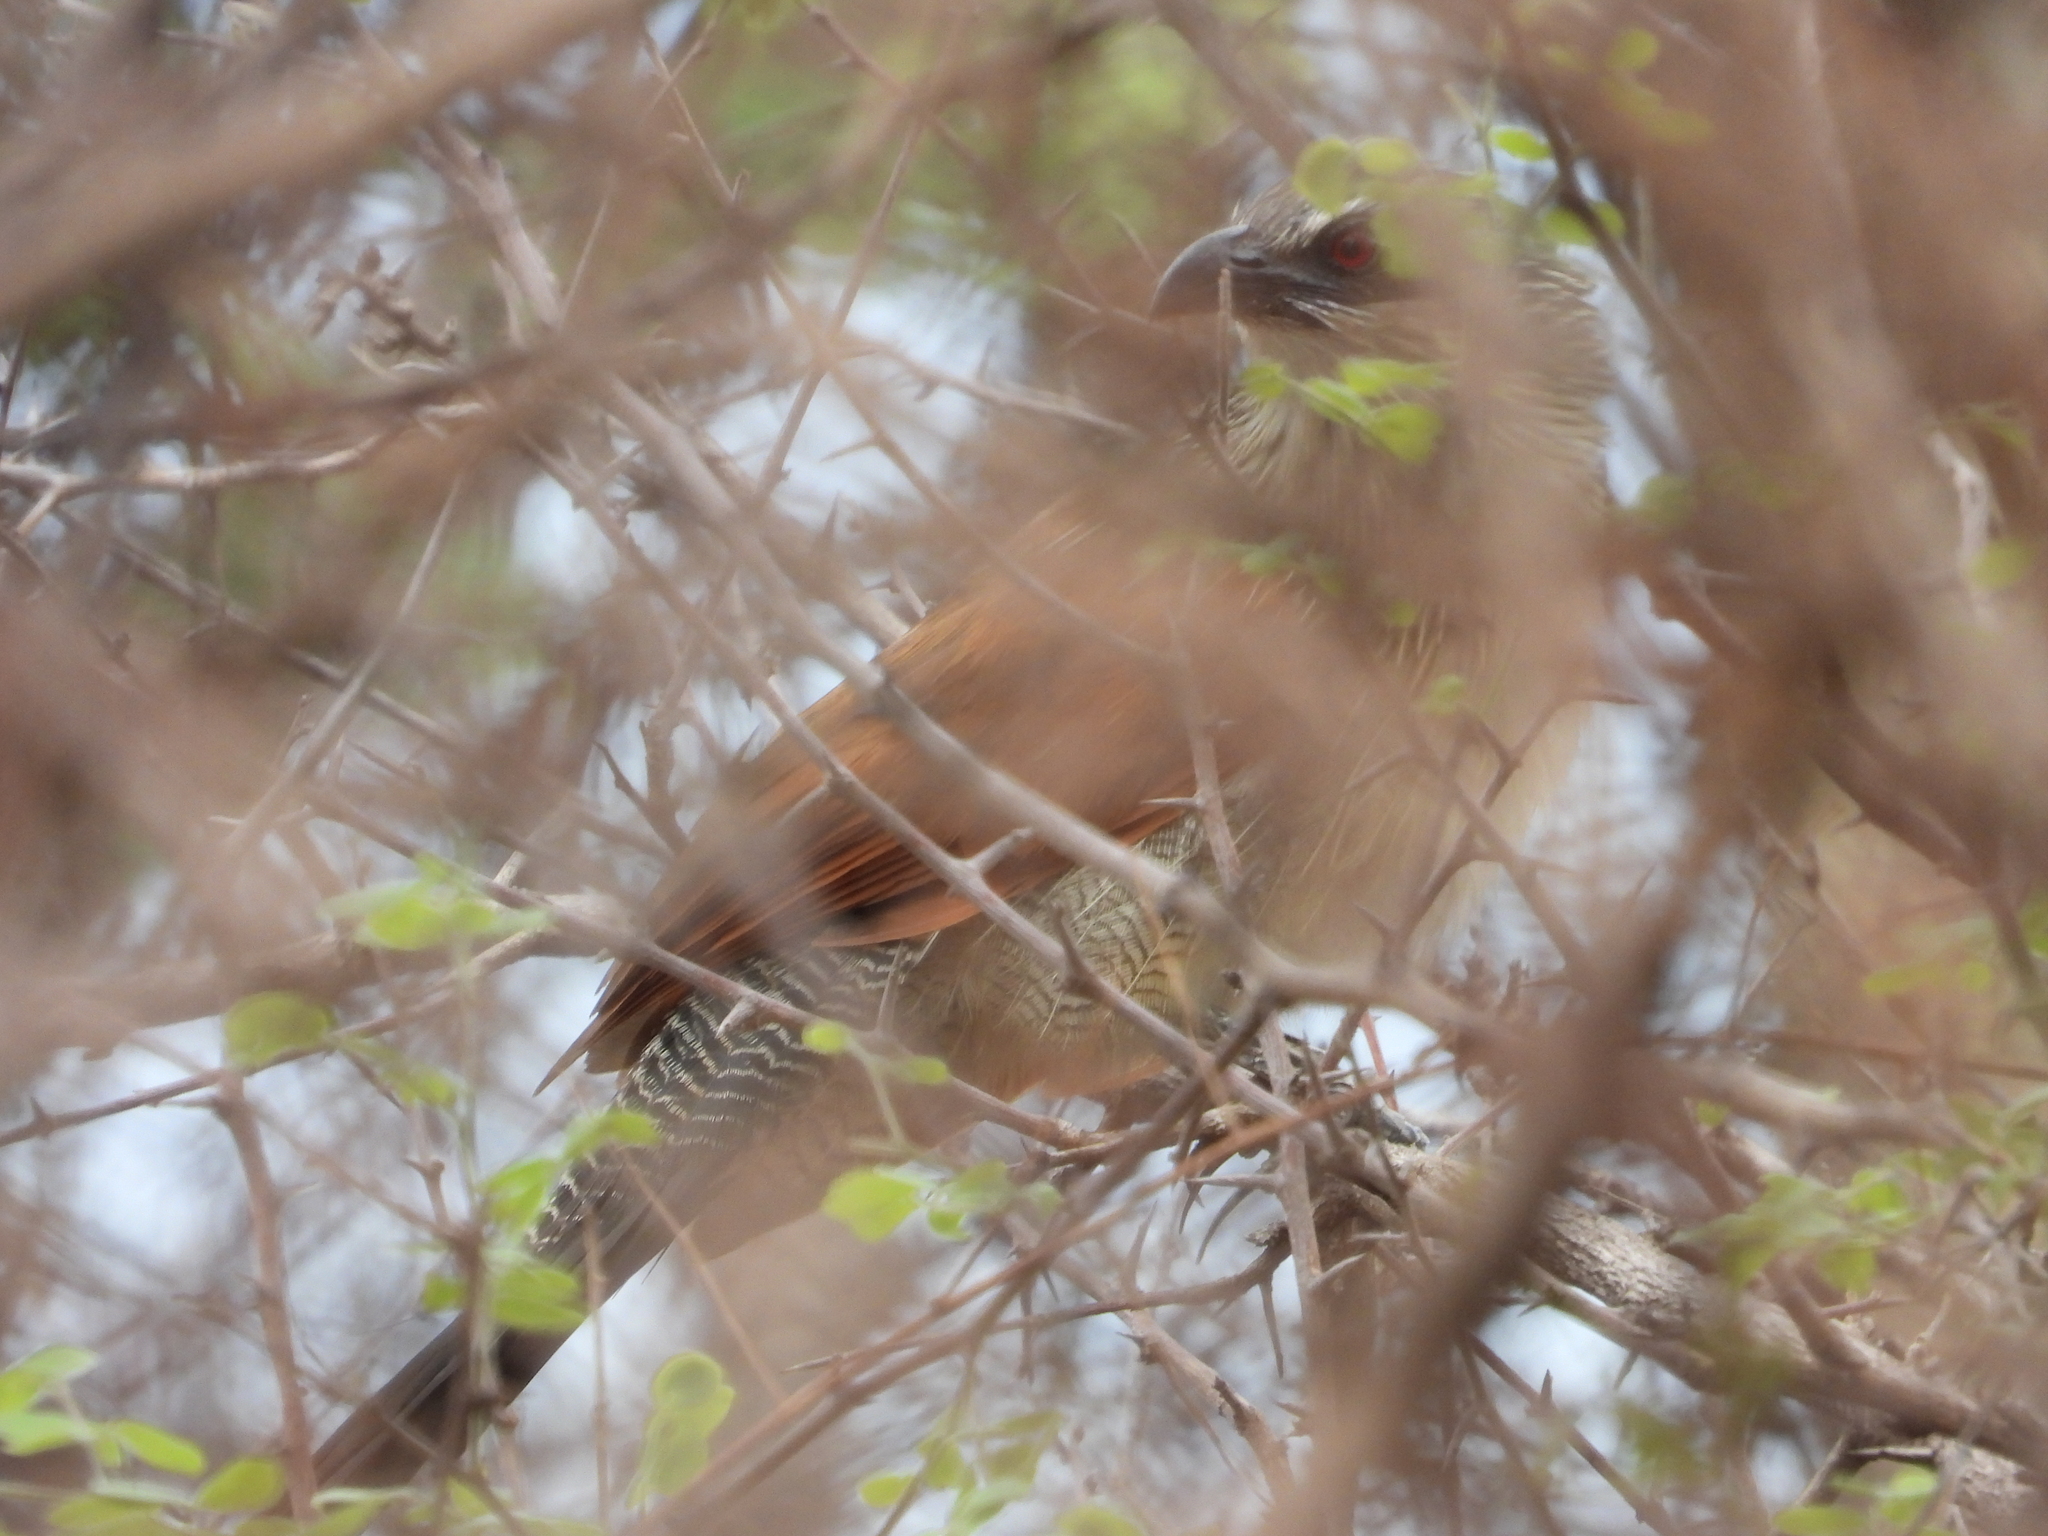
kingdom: Animalia
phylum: Chordata
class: Aves
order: Cuculiformes
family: Cuculidae
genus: Centropus
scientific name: Centropus superciliosus
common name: White-browed coucal
